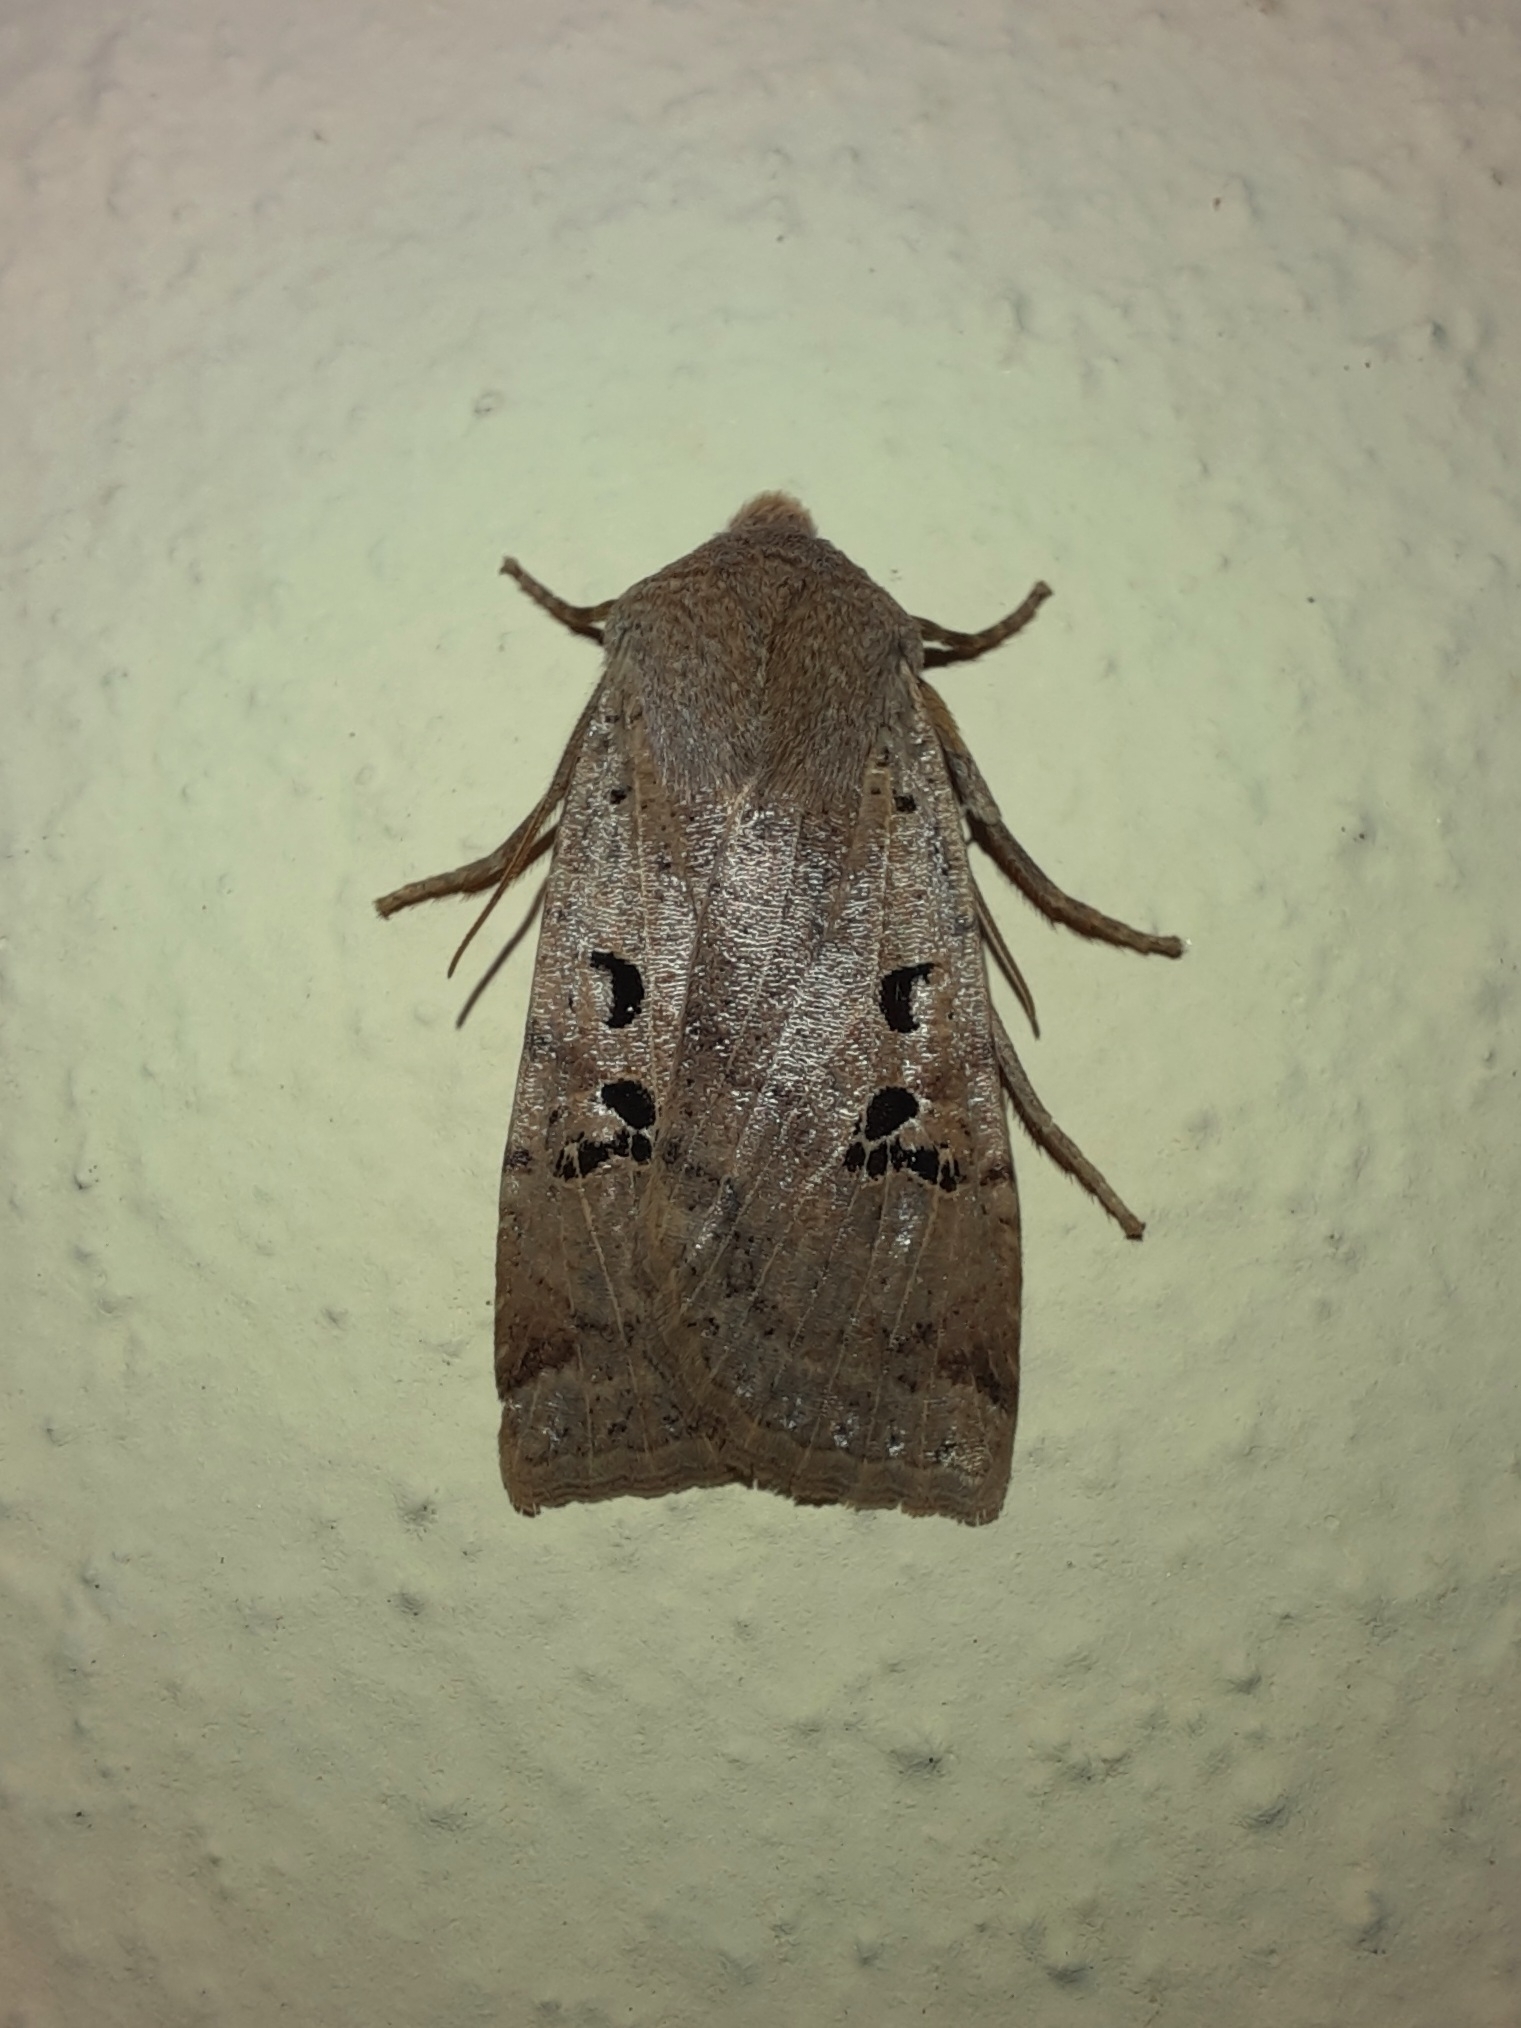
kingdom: Animalia
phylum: Arthropoda
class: Insecta
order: Lepidoptera
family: Noctuidae
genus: Conistra
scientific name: Conistra rubiginosa
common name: Black-spotted chestnut
